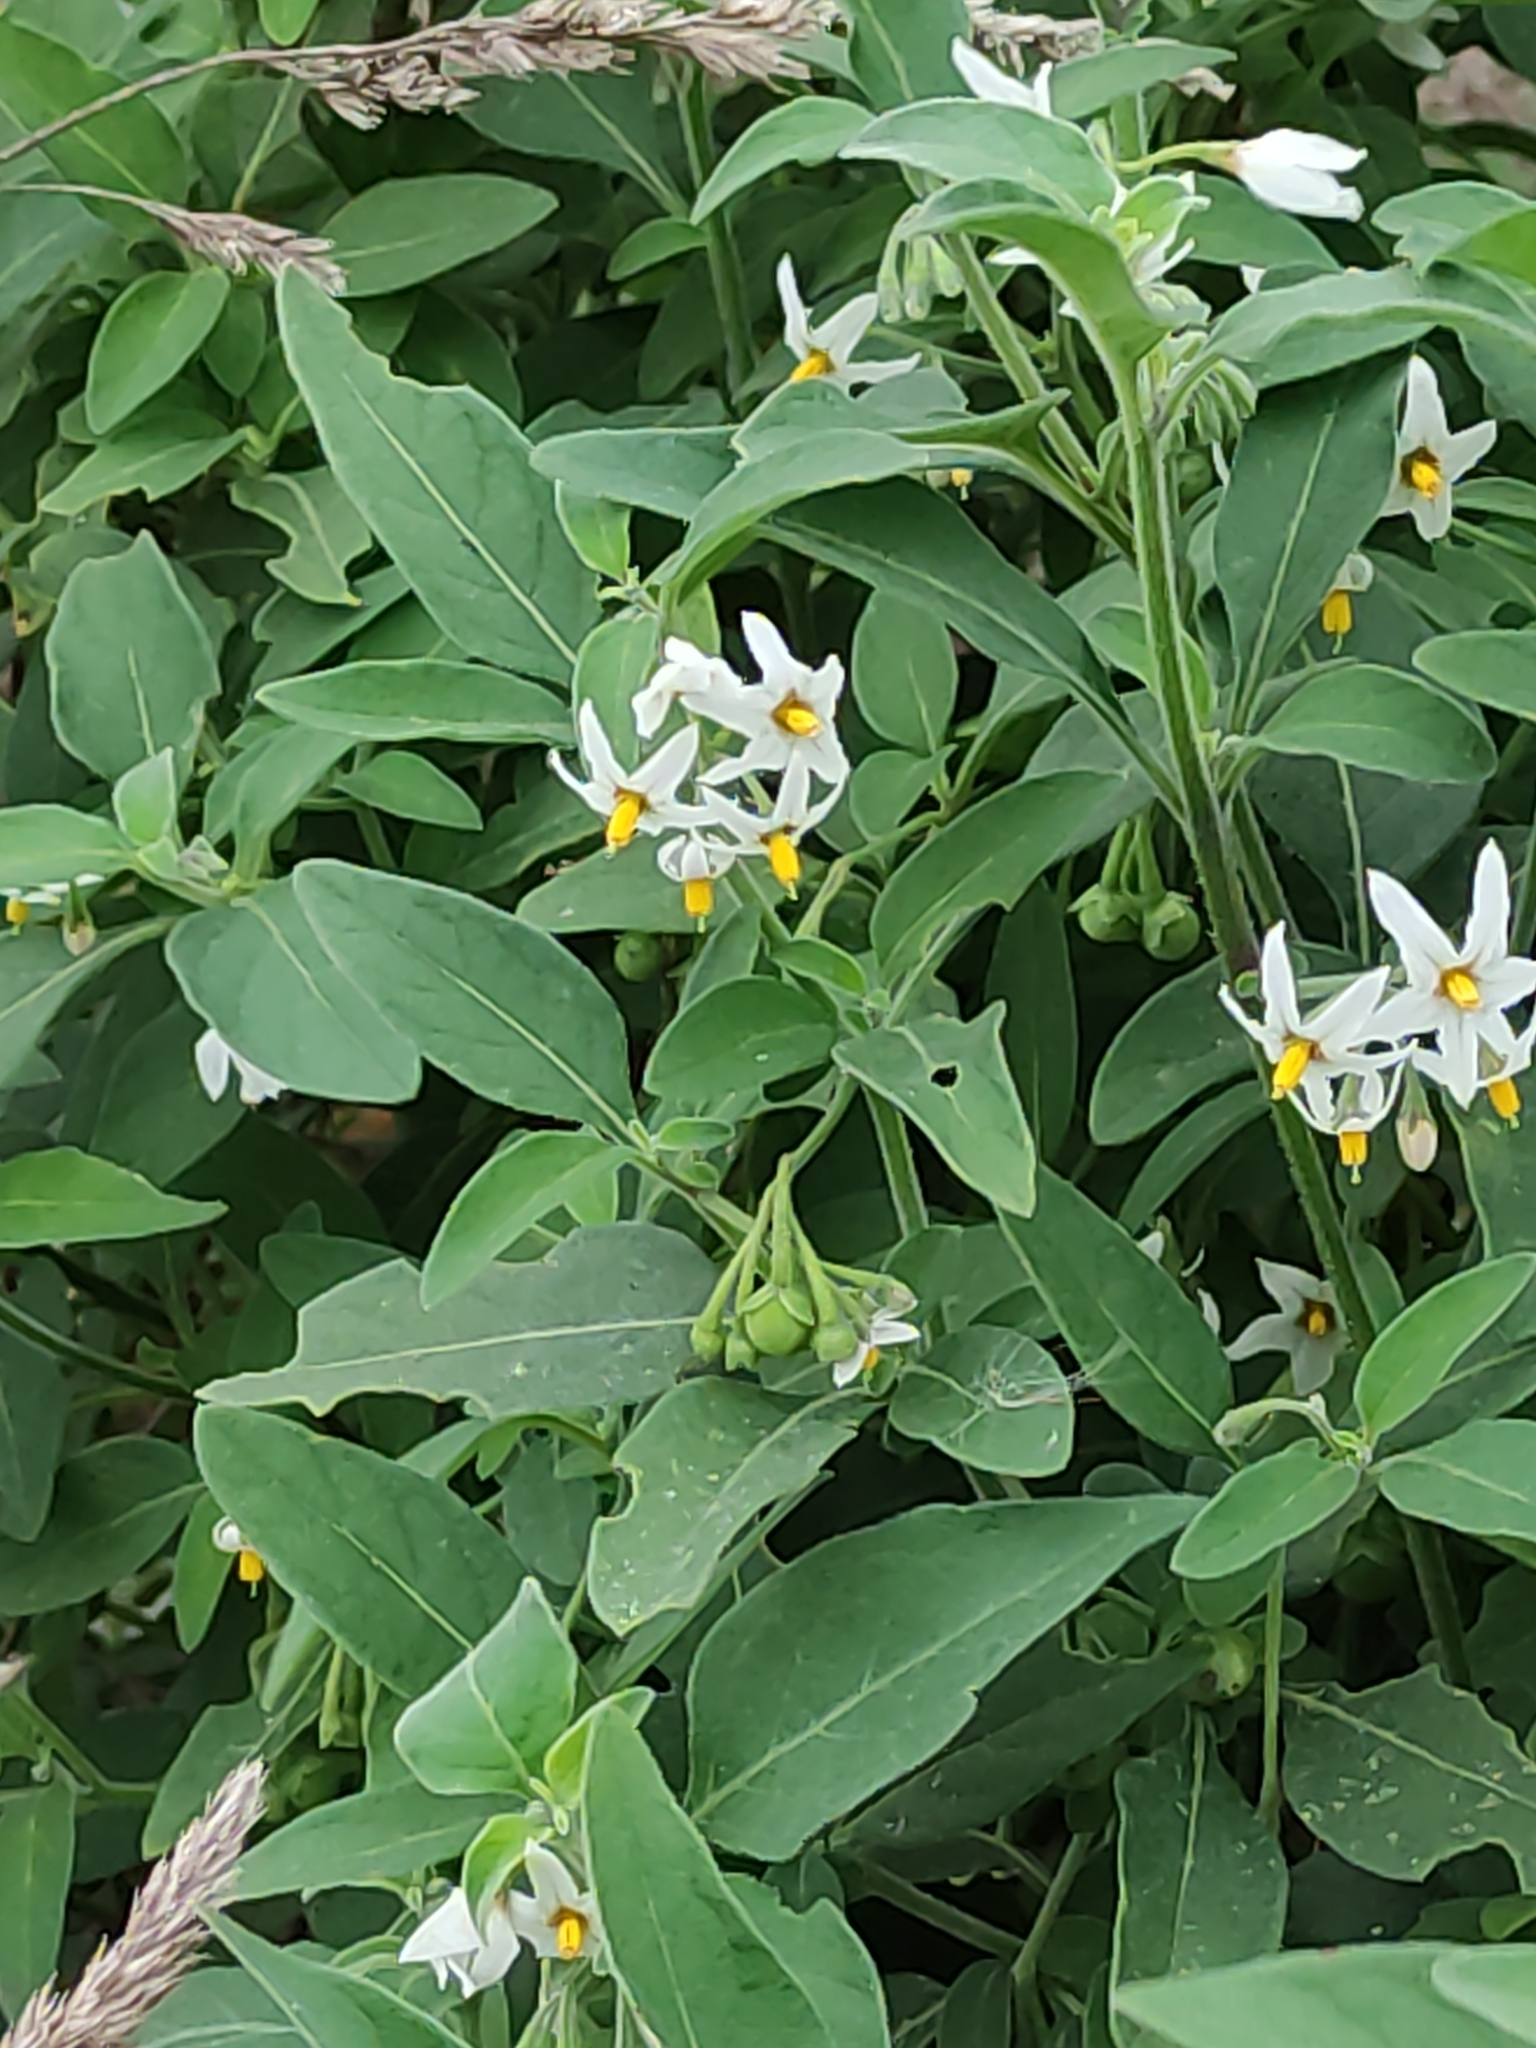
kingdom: Plantae
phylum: Tracheophyta
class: Magnoliopsida
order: Solanales
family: Solanaceae
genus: Solanum
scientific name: Solanum chenopodioides
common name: Tall nightshade
